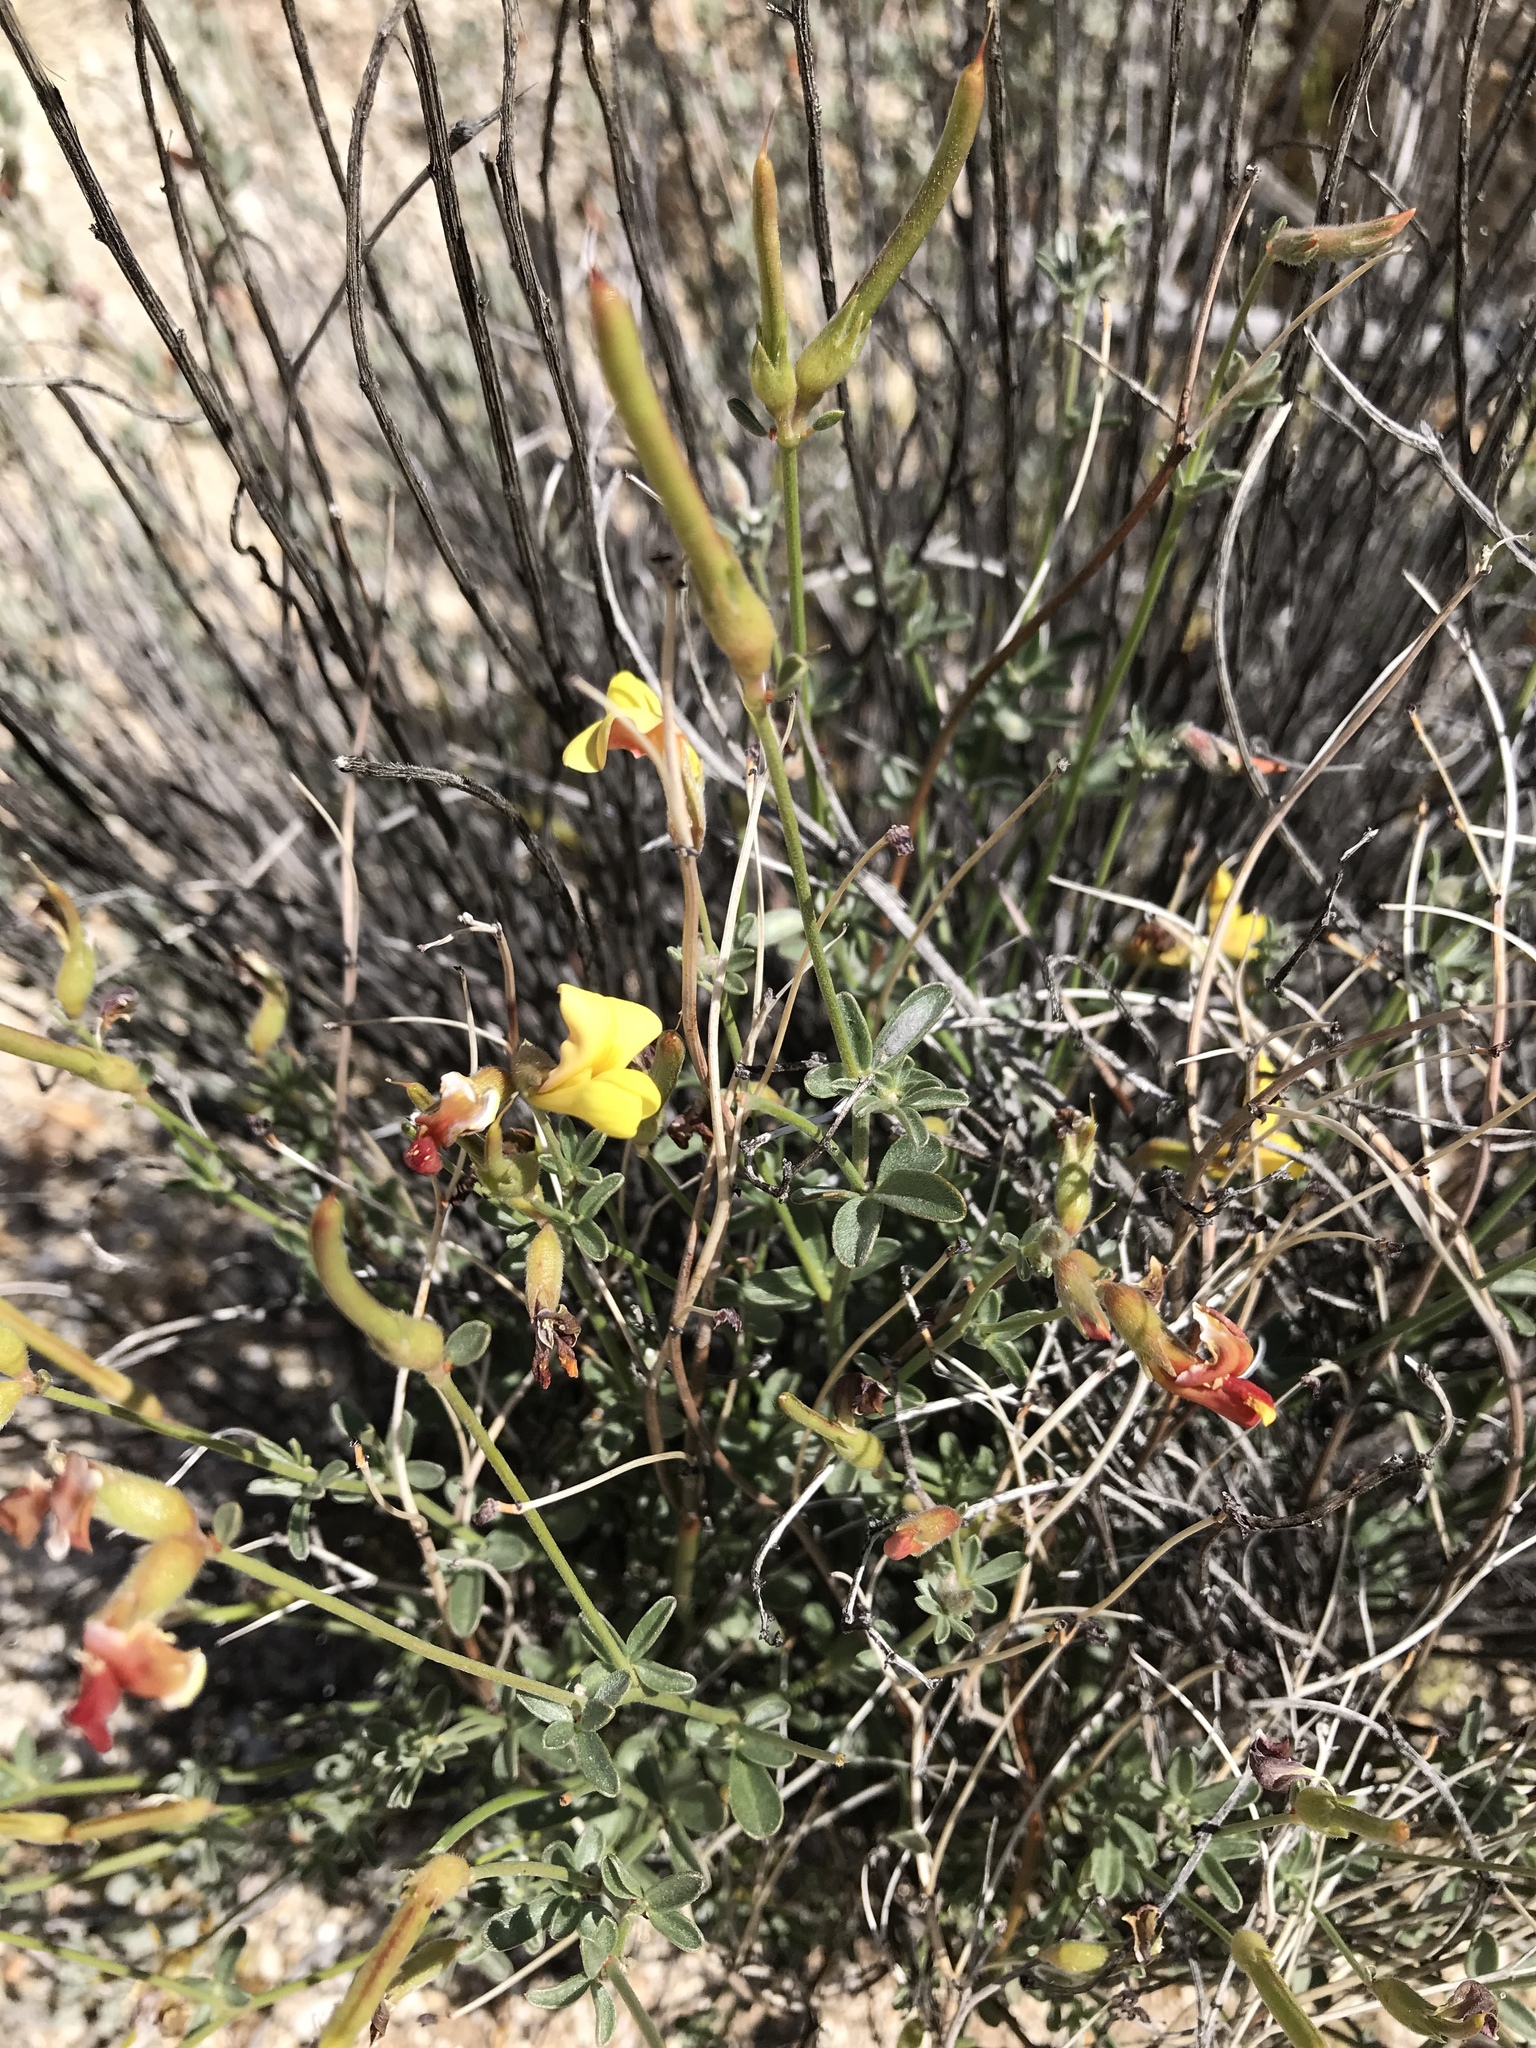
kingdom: Plantae
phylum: Tracheophyta
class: Magnoliopsida
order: Fabales
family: Fabaceae
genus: Acmispon
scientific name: Acmispon rigidus
